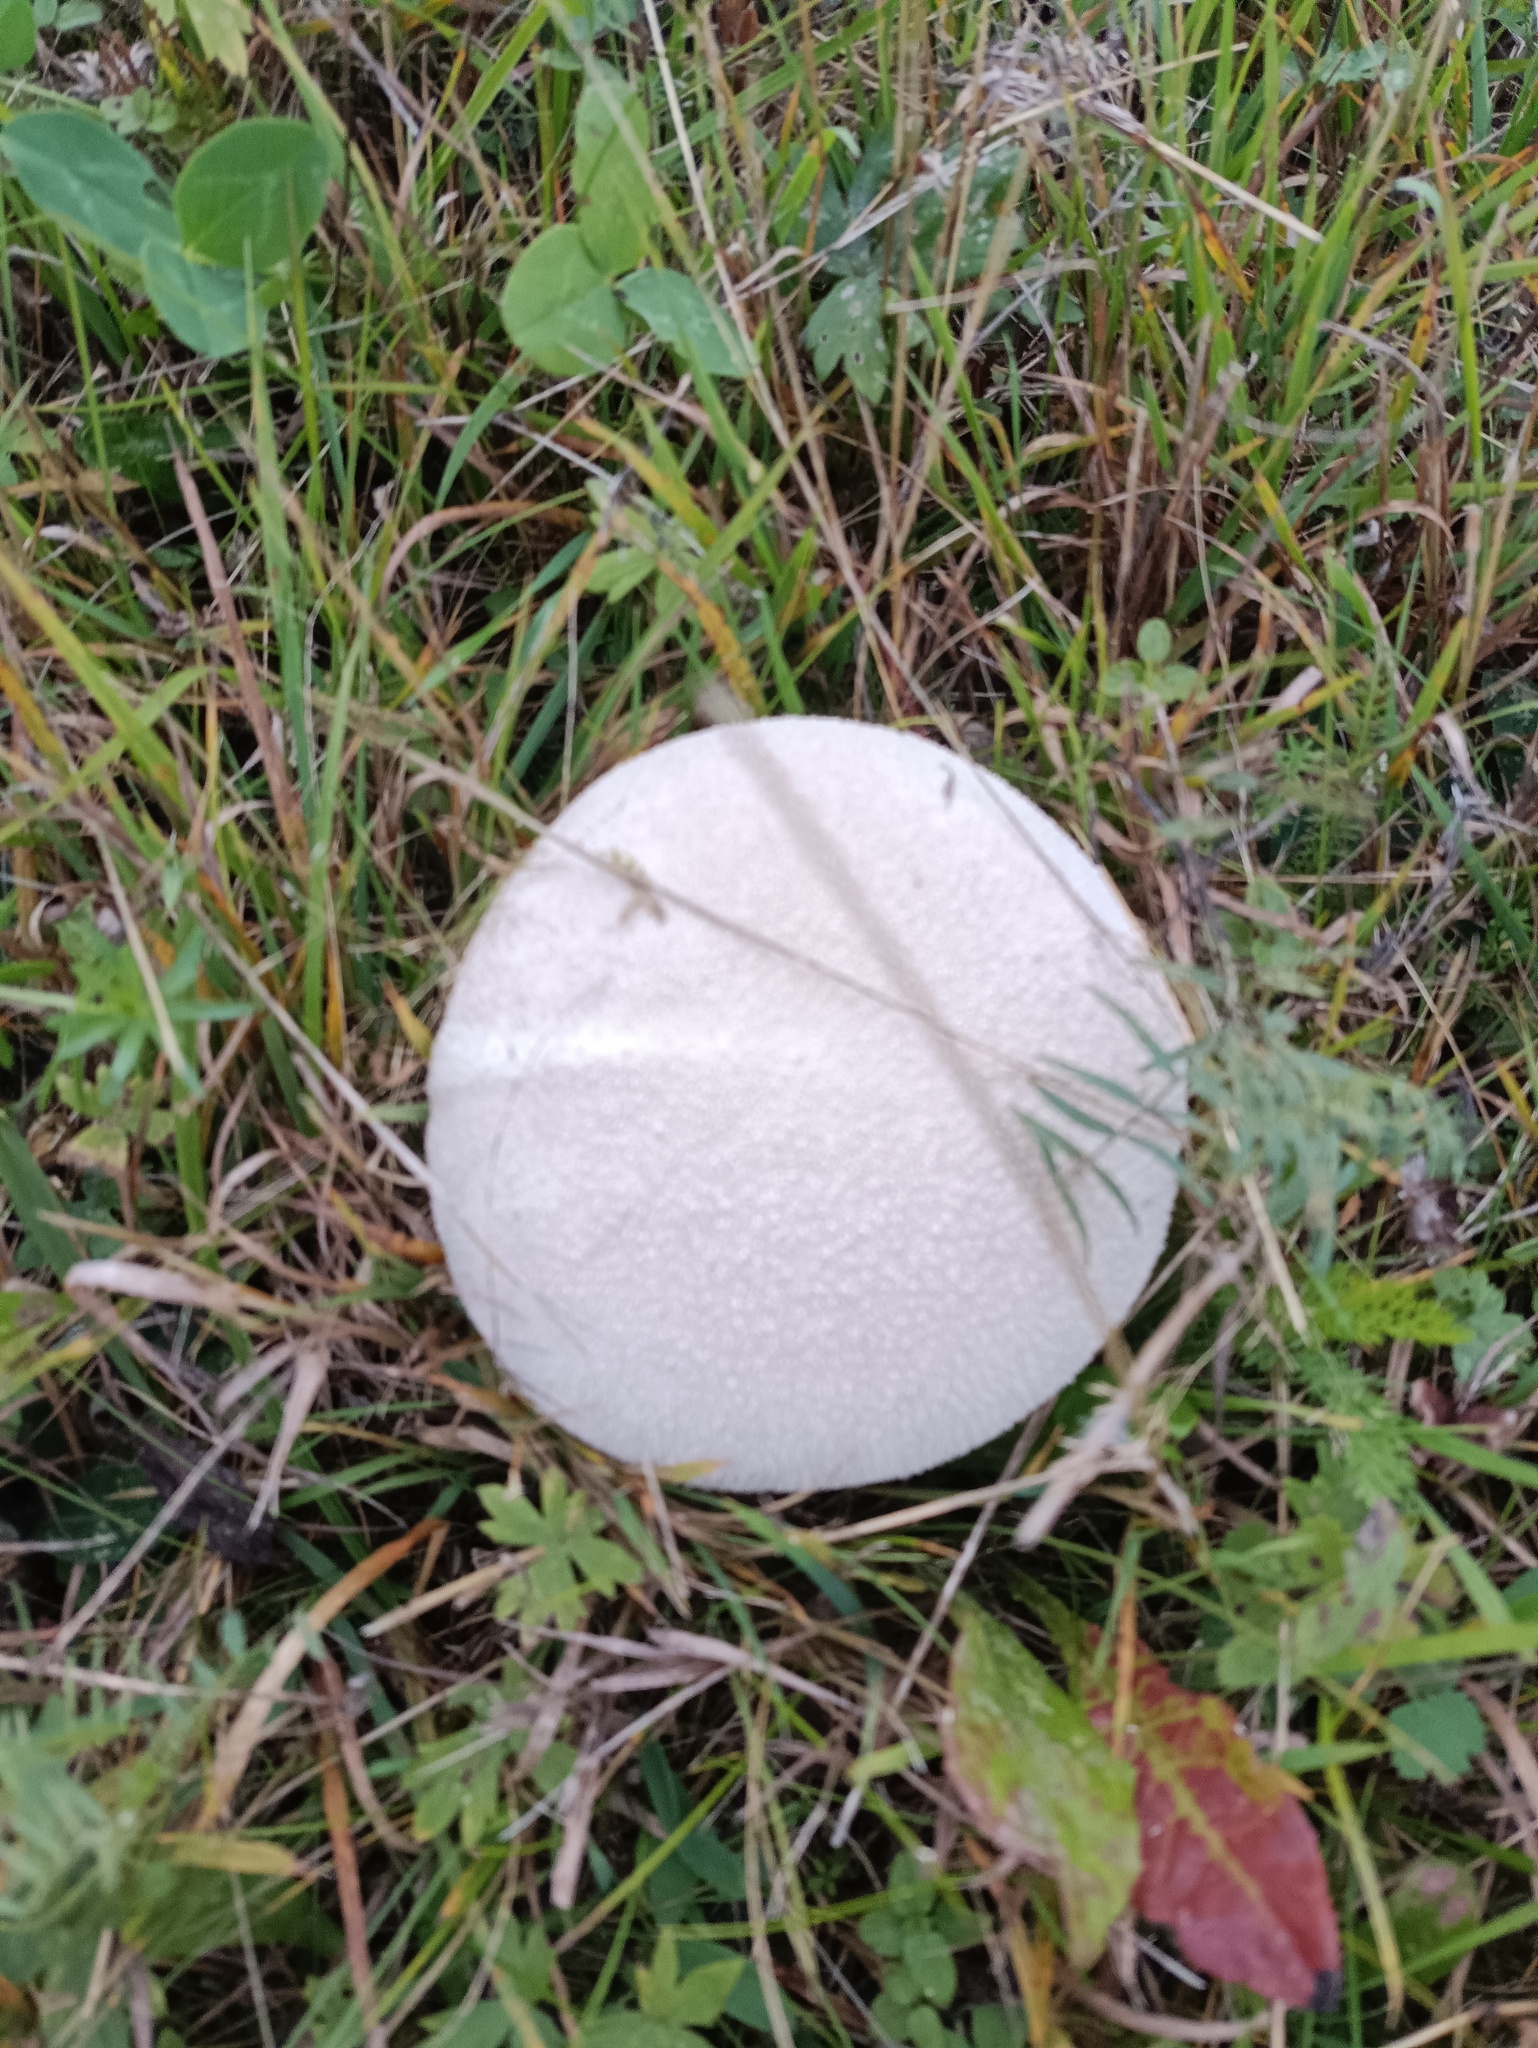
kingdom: Fungi
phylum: Basidiomycota
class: Agaricomycetes
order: Agaricales
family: Lycoperdaceae
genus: Bovistella
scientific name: Bovistella utriformis
